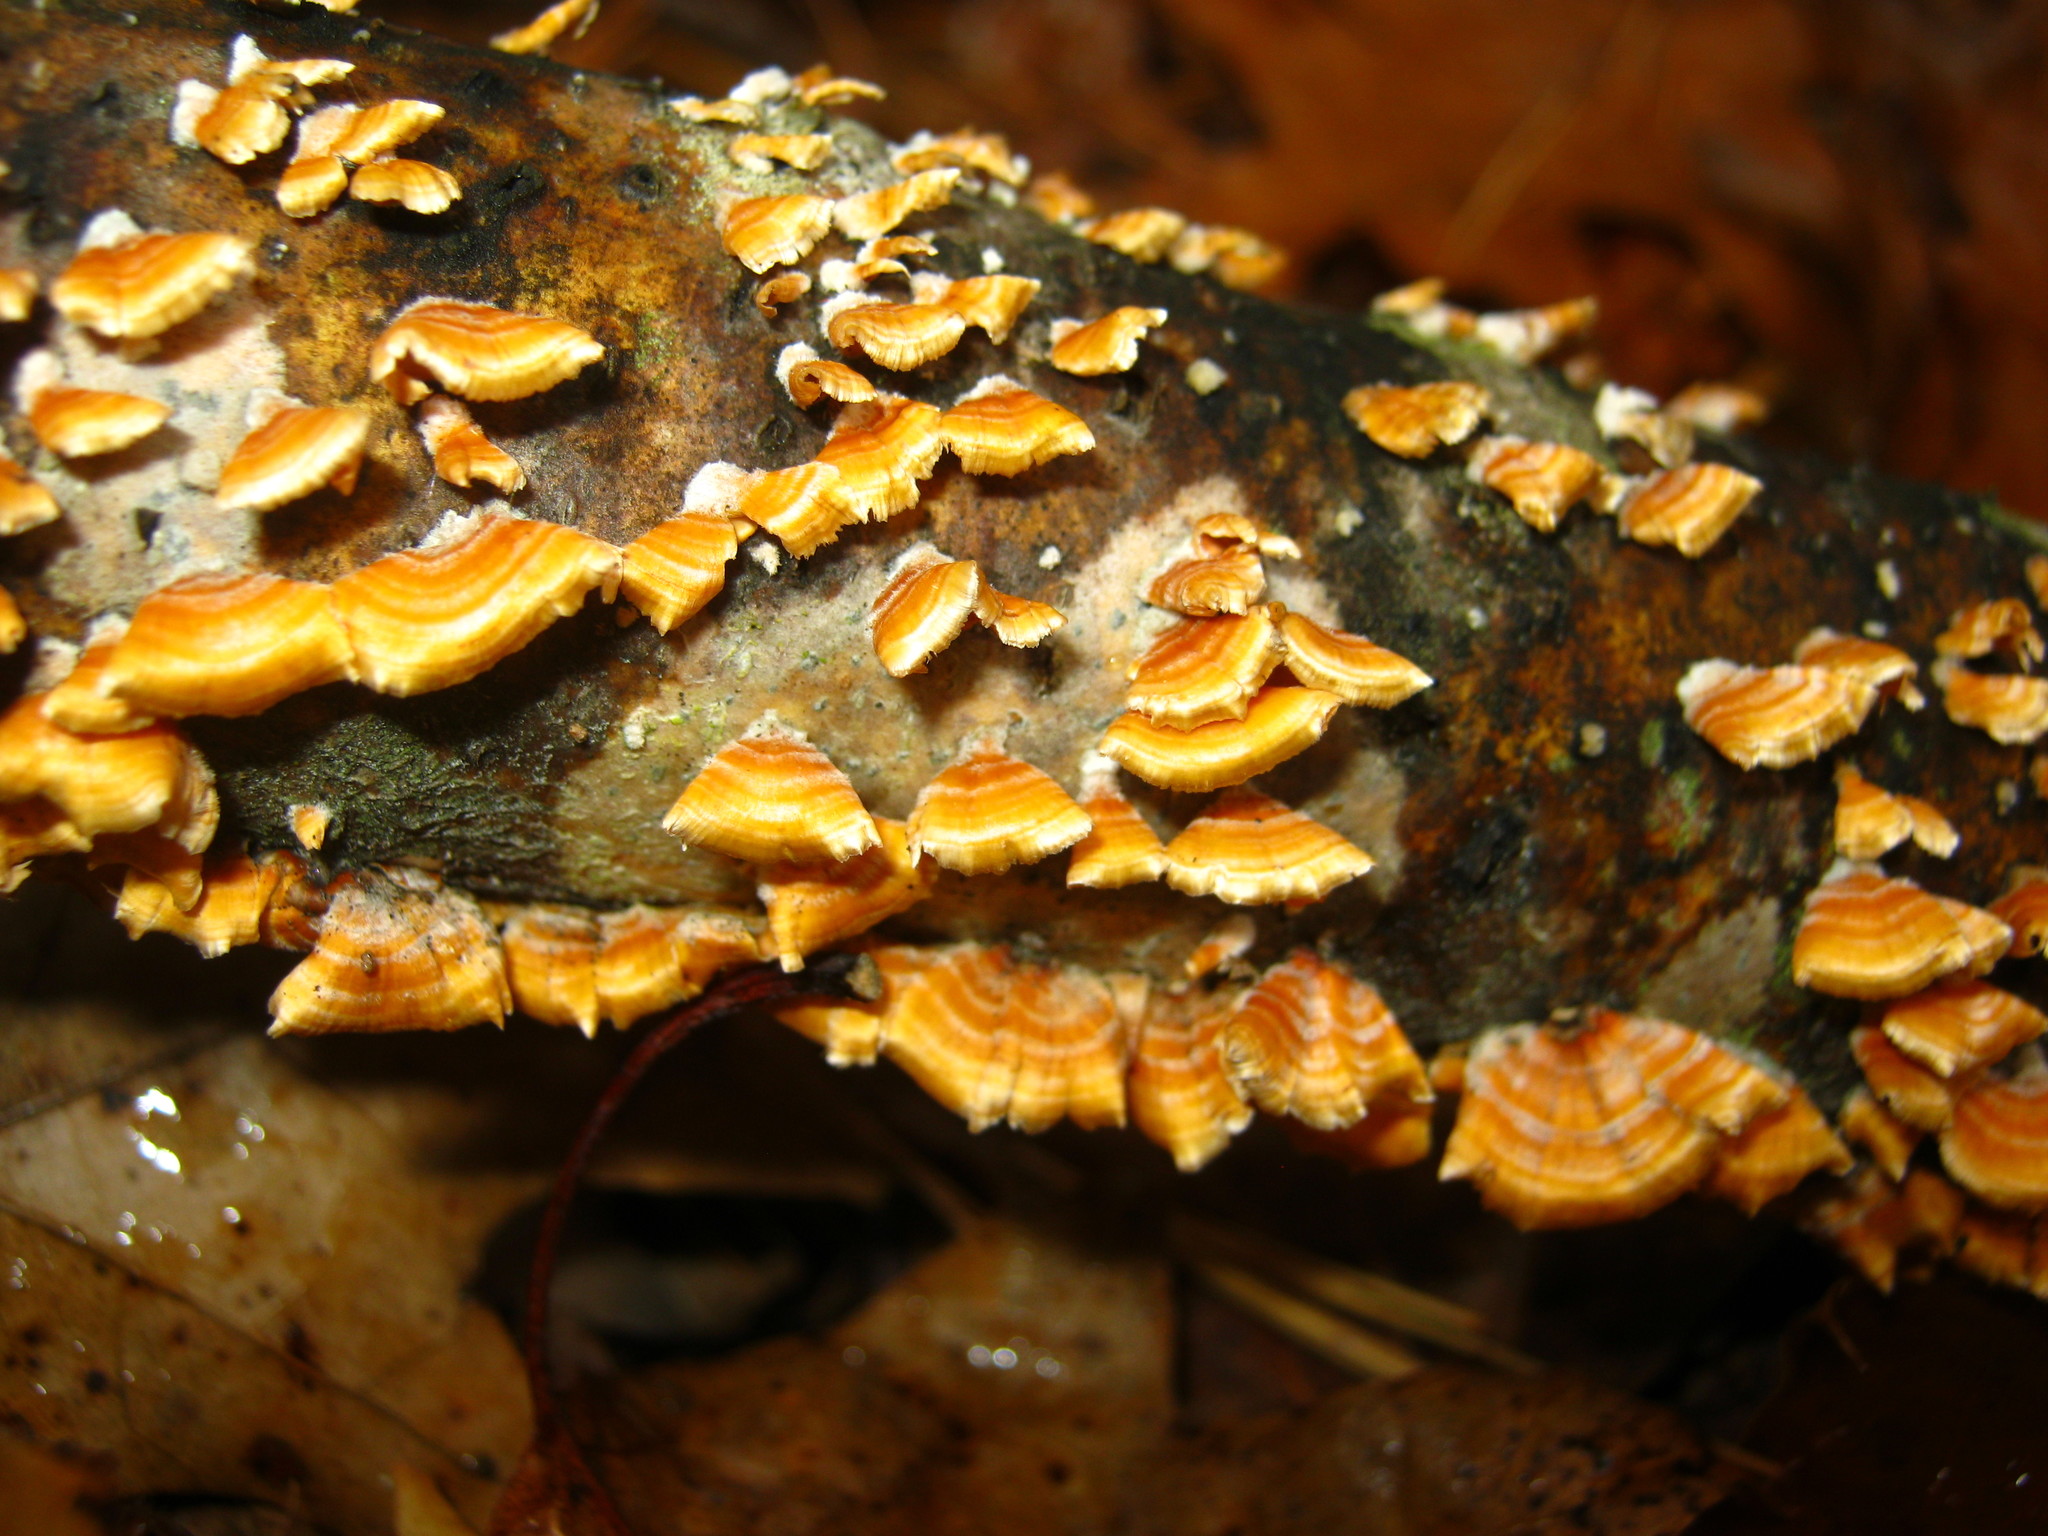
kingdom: Fungi
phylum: Basidiomycota
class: Agaricomycetes
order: Russulales
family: Stereaceae
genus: Stereum
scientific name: Stereum complicatum
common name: Crowded parchment
